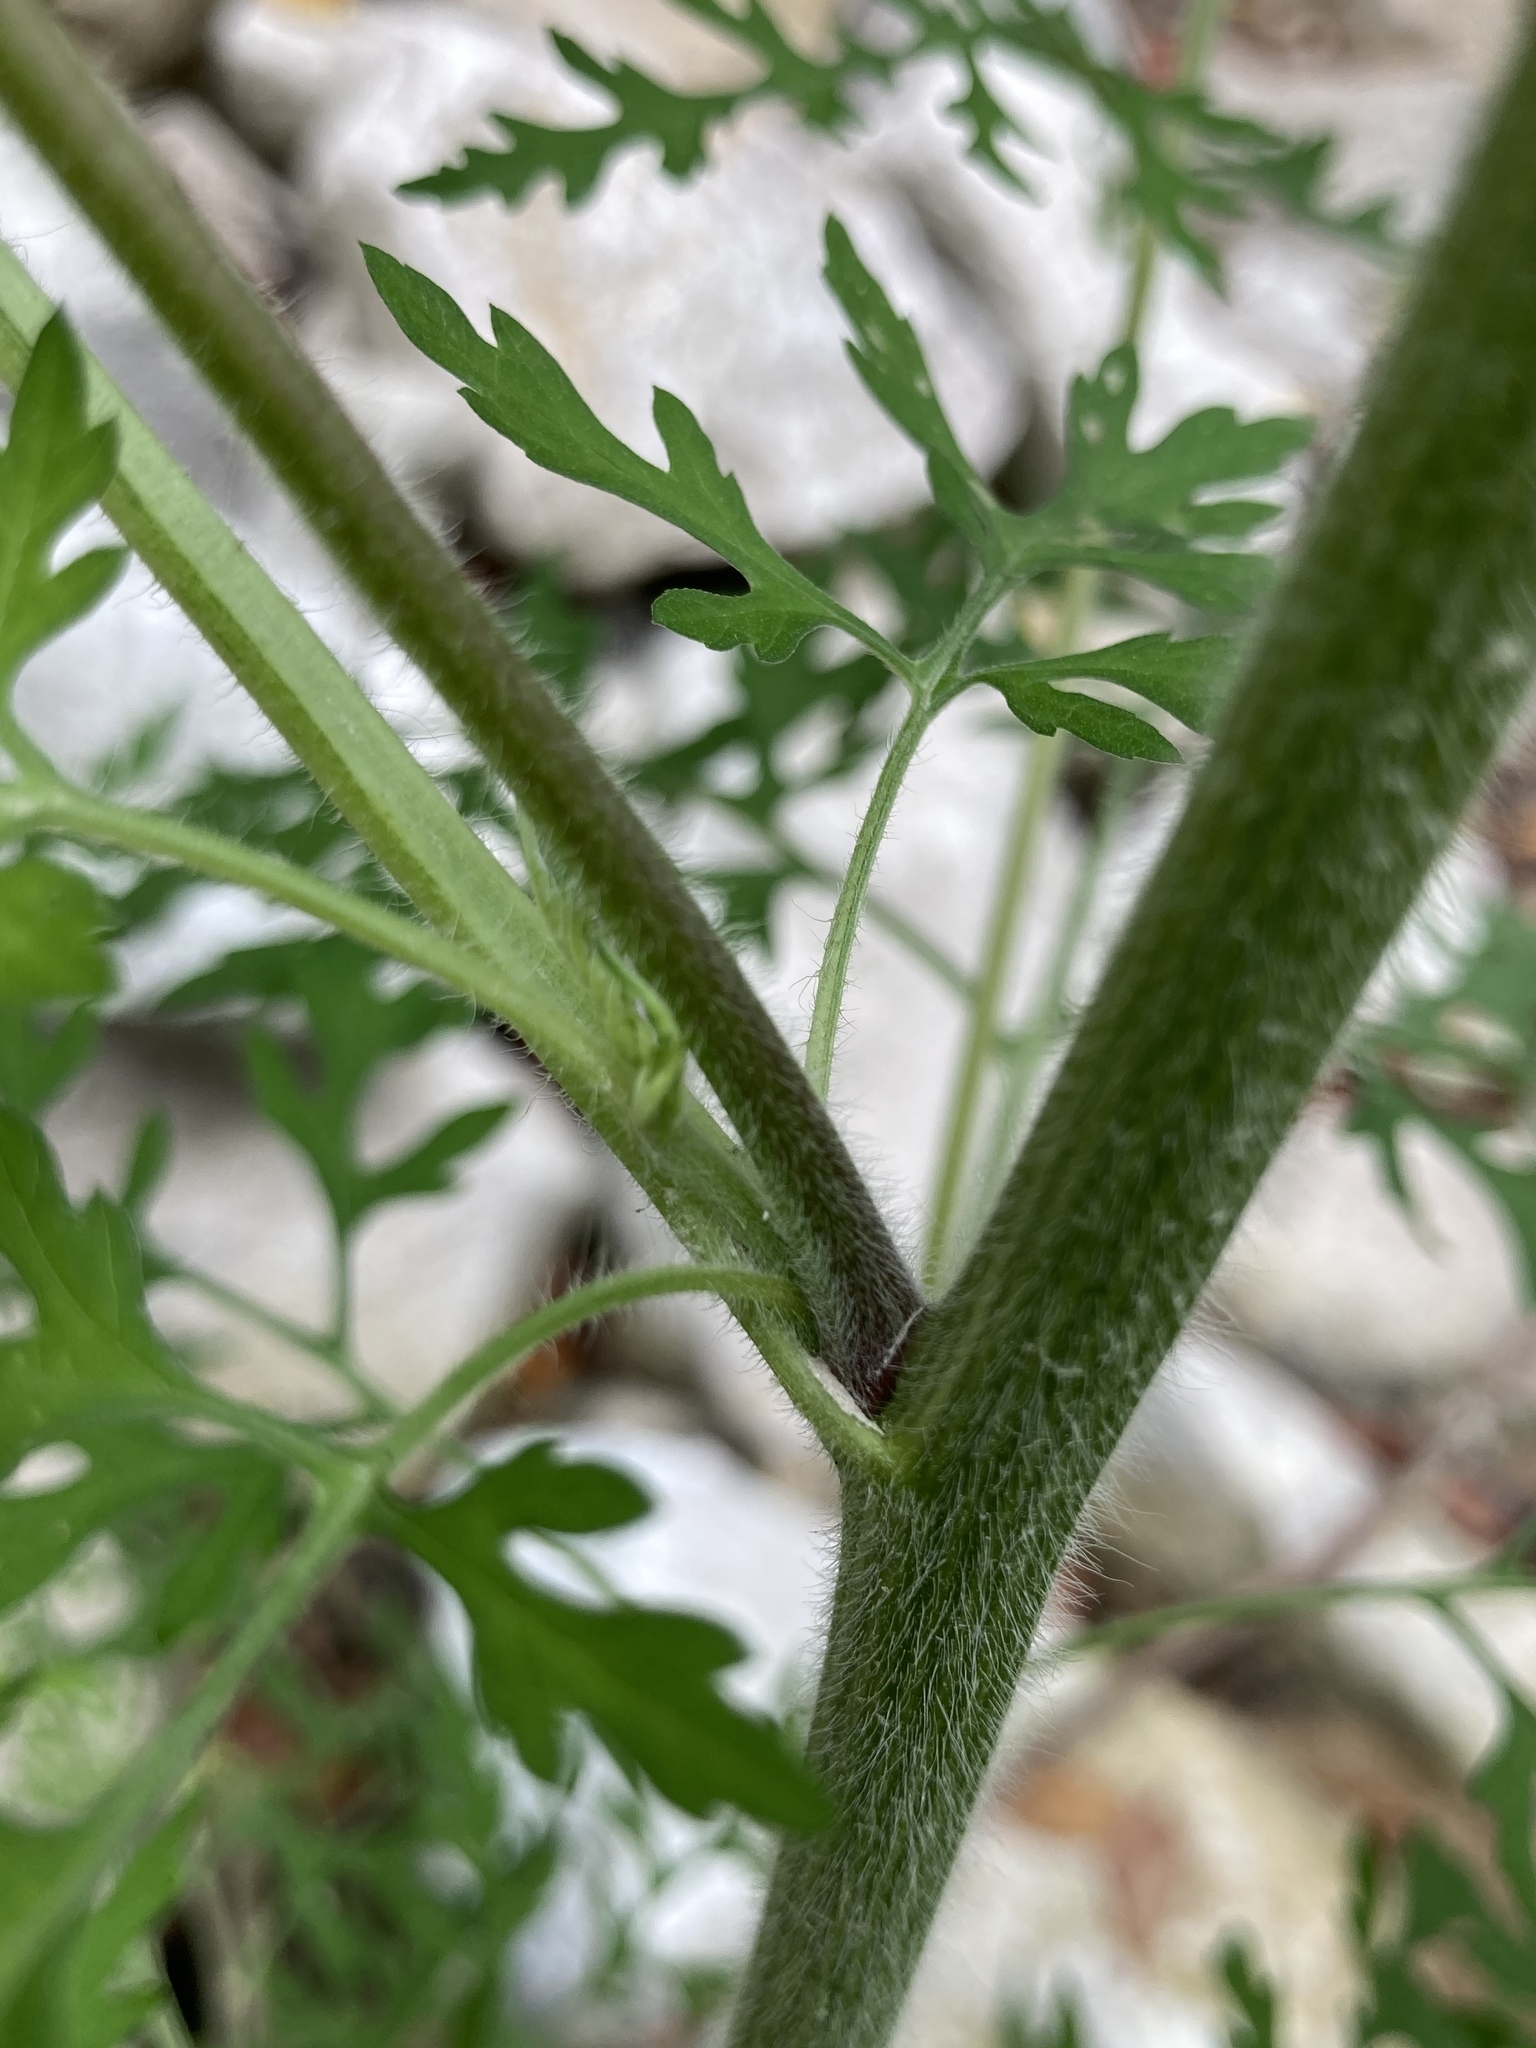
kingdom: Plantae
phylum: Tracheophyta
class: Magnoliopsida
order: Asterales
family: Asteraceae
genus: Ambrosia
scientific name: Ambrosia artemisiifolia
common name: Annual ragweed
